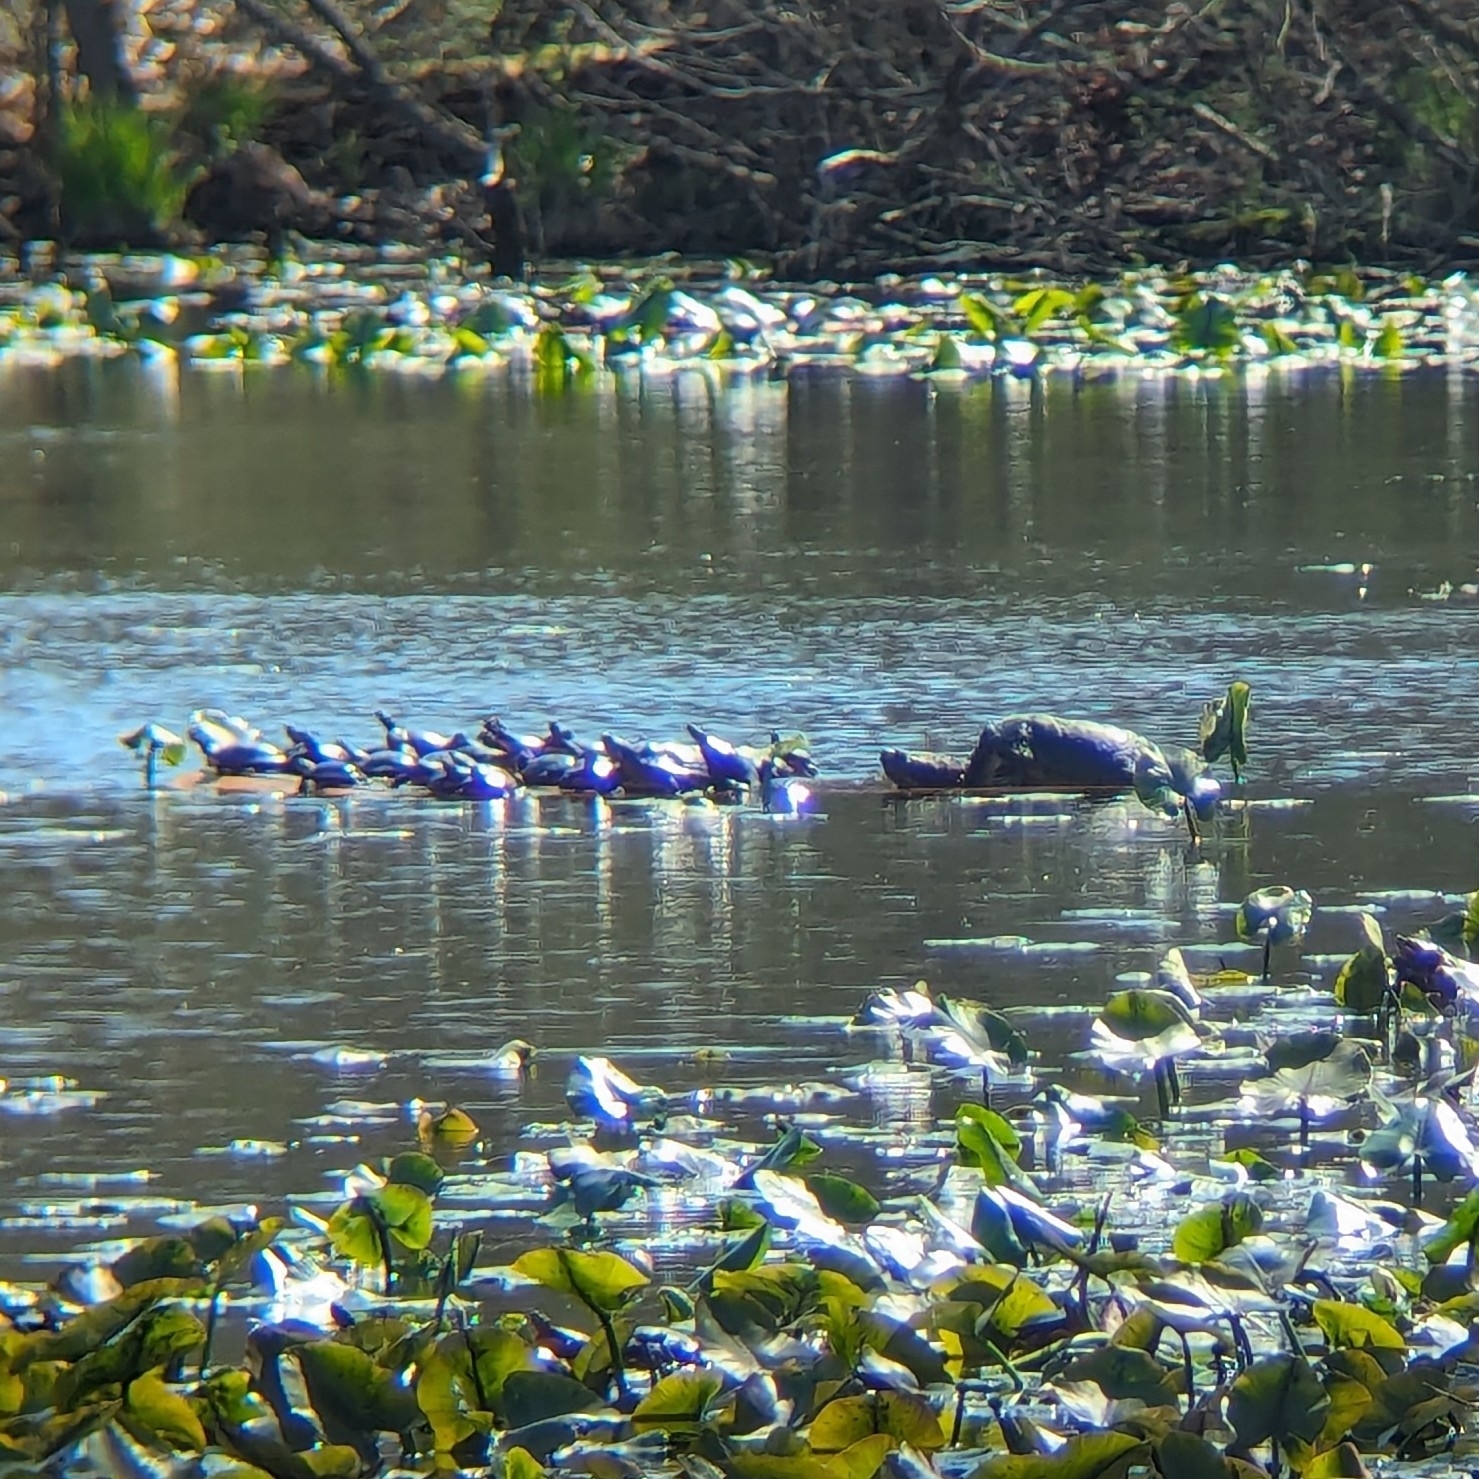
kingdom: Animalia
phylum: Chordata
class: Testudines
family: Chelydridae
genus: Chelydra
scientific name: Chelydra serpentina
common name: Common snapping turtle
